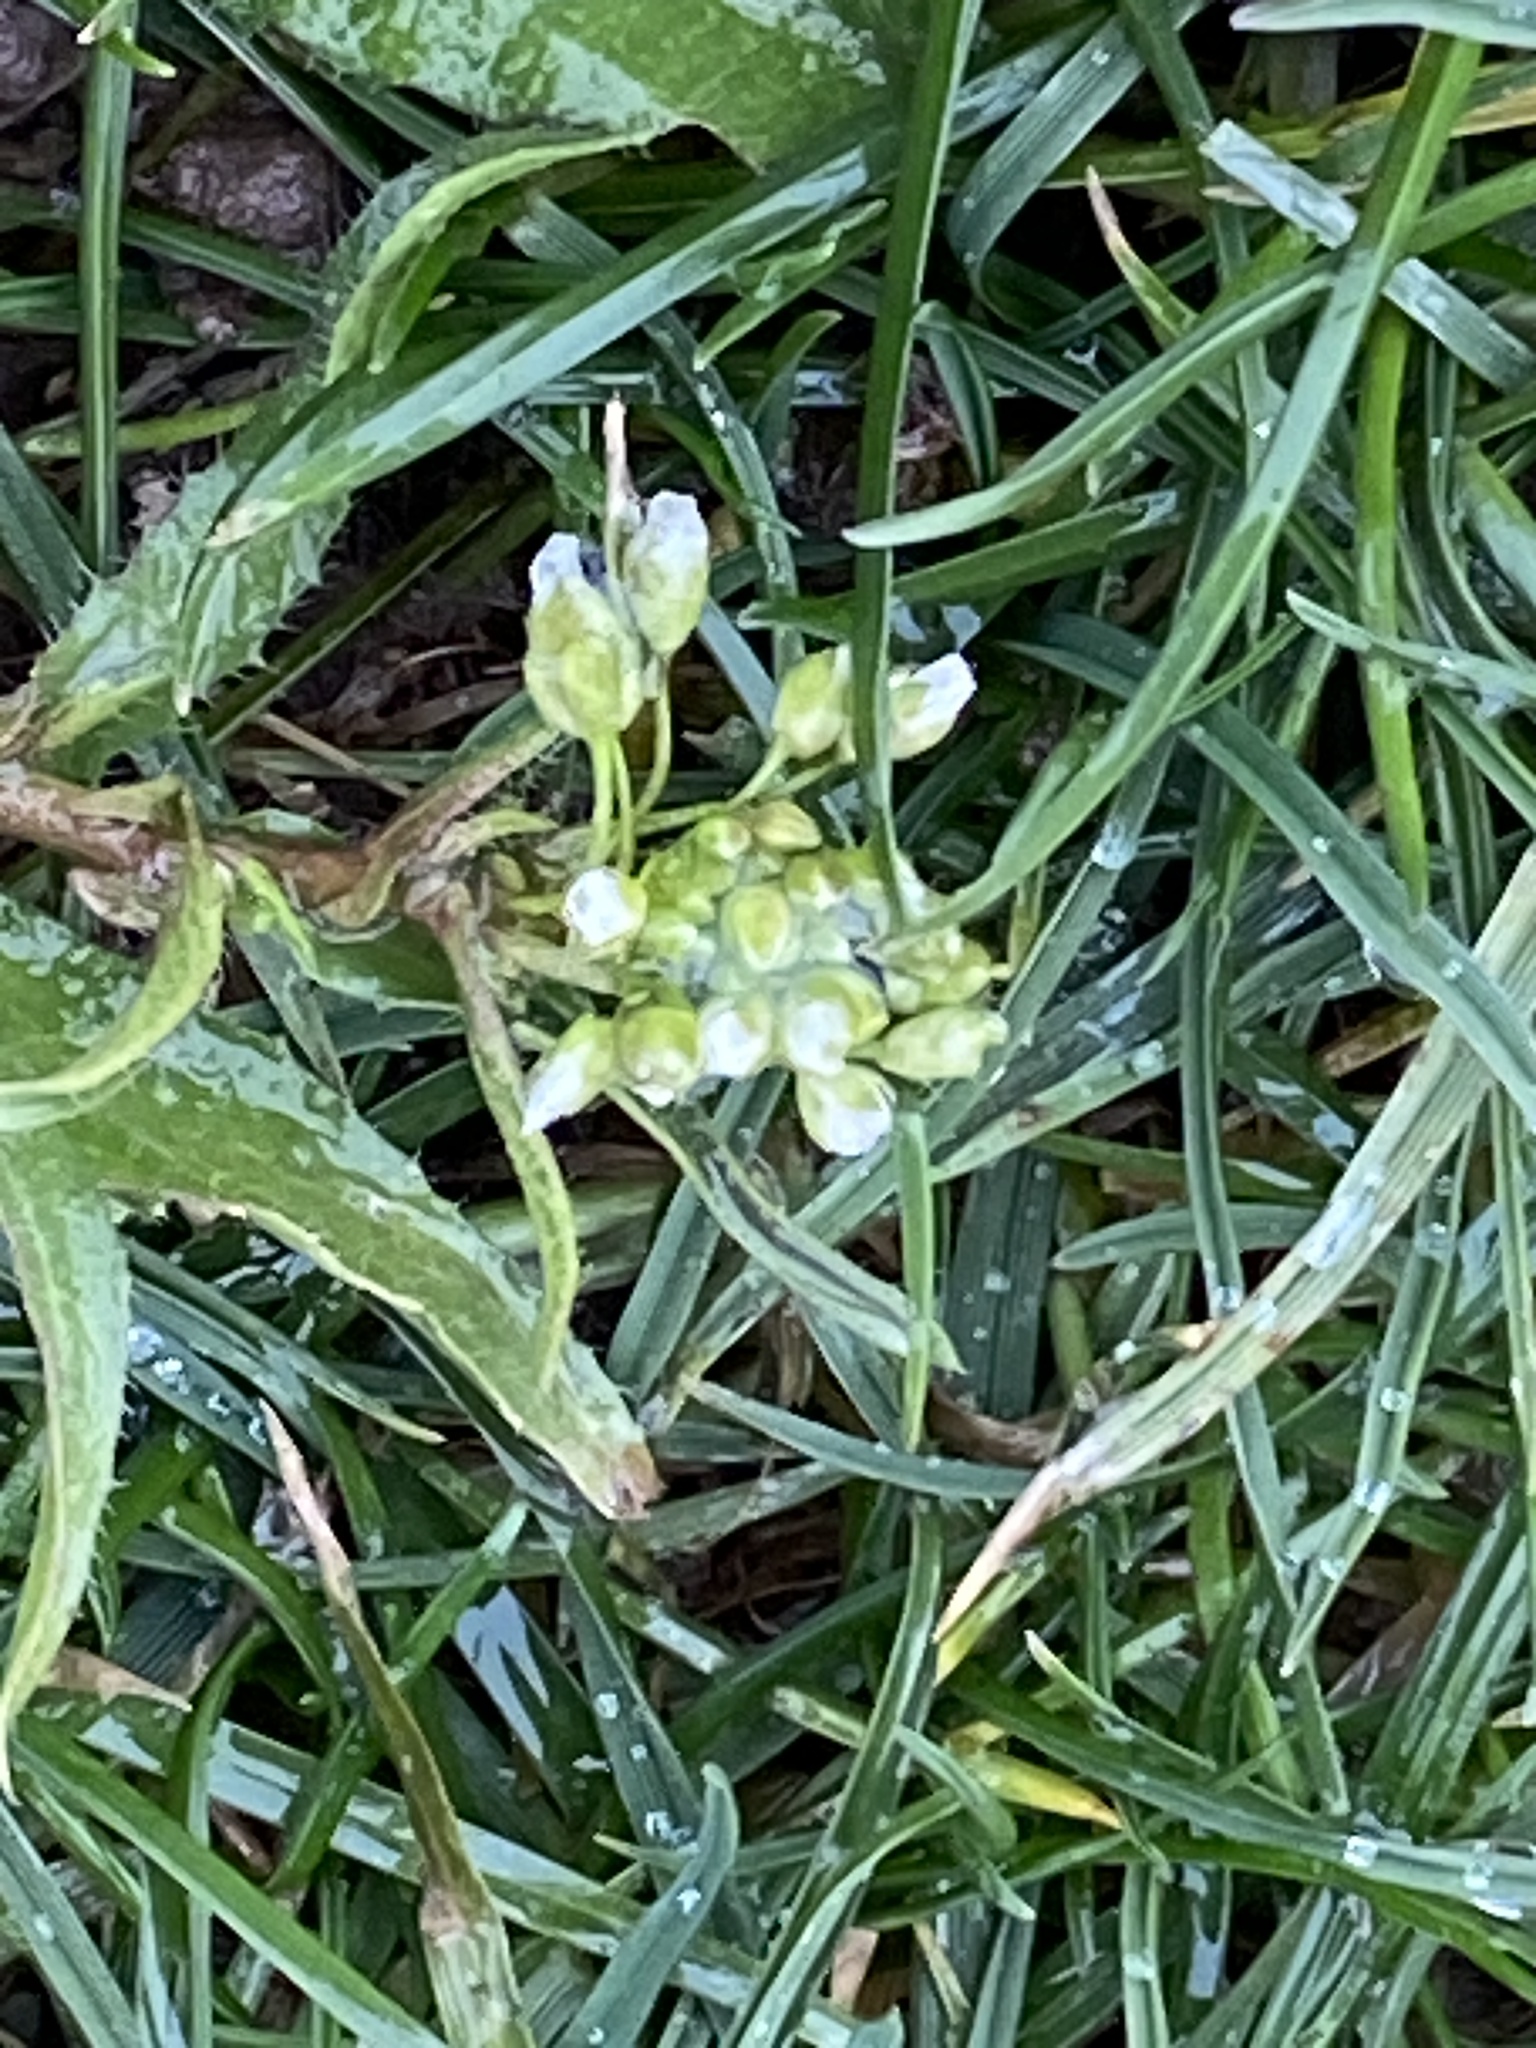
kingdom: Plantae
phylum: Tracheophyta
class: Magnoliopsida
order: Brassicales
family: Brassicaceae
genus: Capsella
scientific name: Capsella bursa-pastoris
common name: Shepherd's purse
